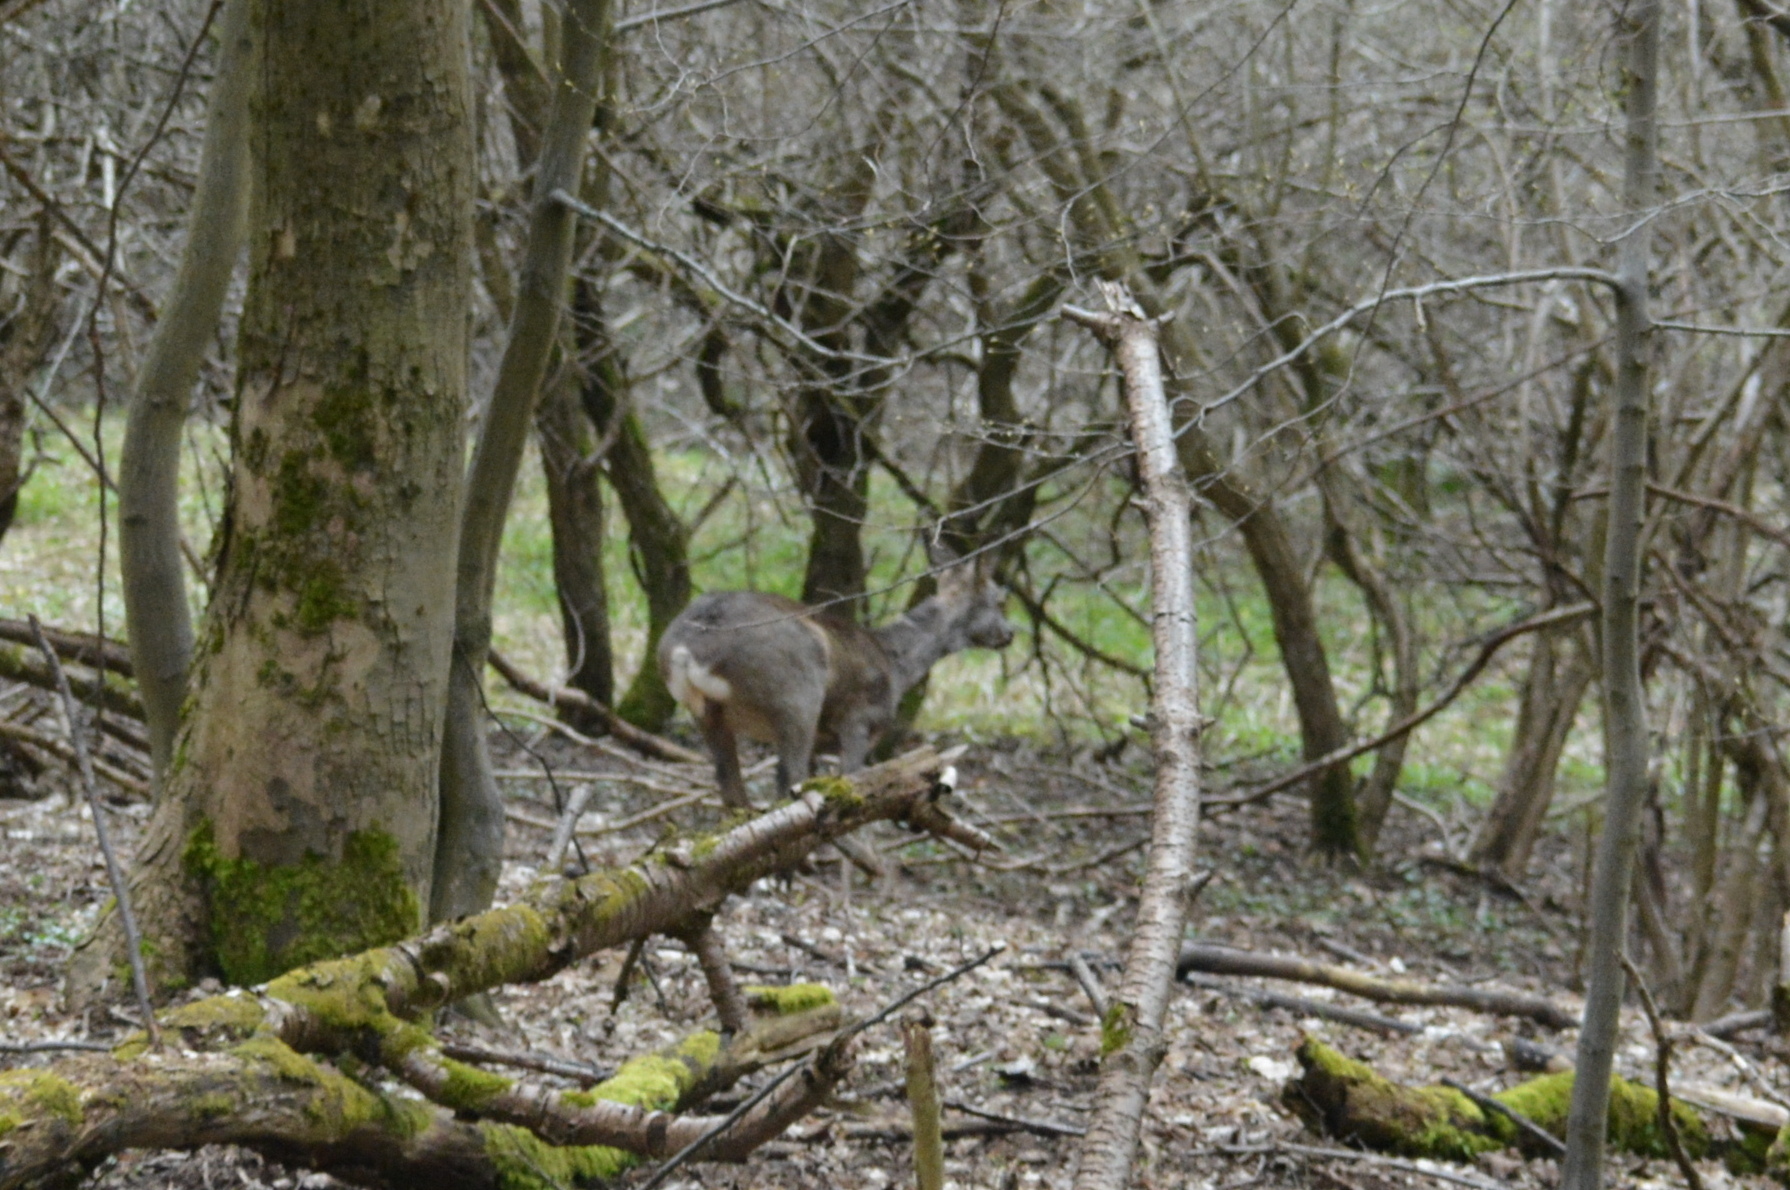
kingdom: Animalia
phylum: Chordata
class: Mammalia
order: Artiodactyla
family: Cervidae
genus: Capreolus
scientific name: Capreolus capreolus
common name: Western roe deer
